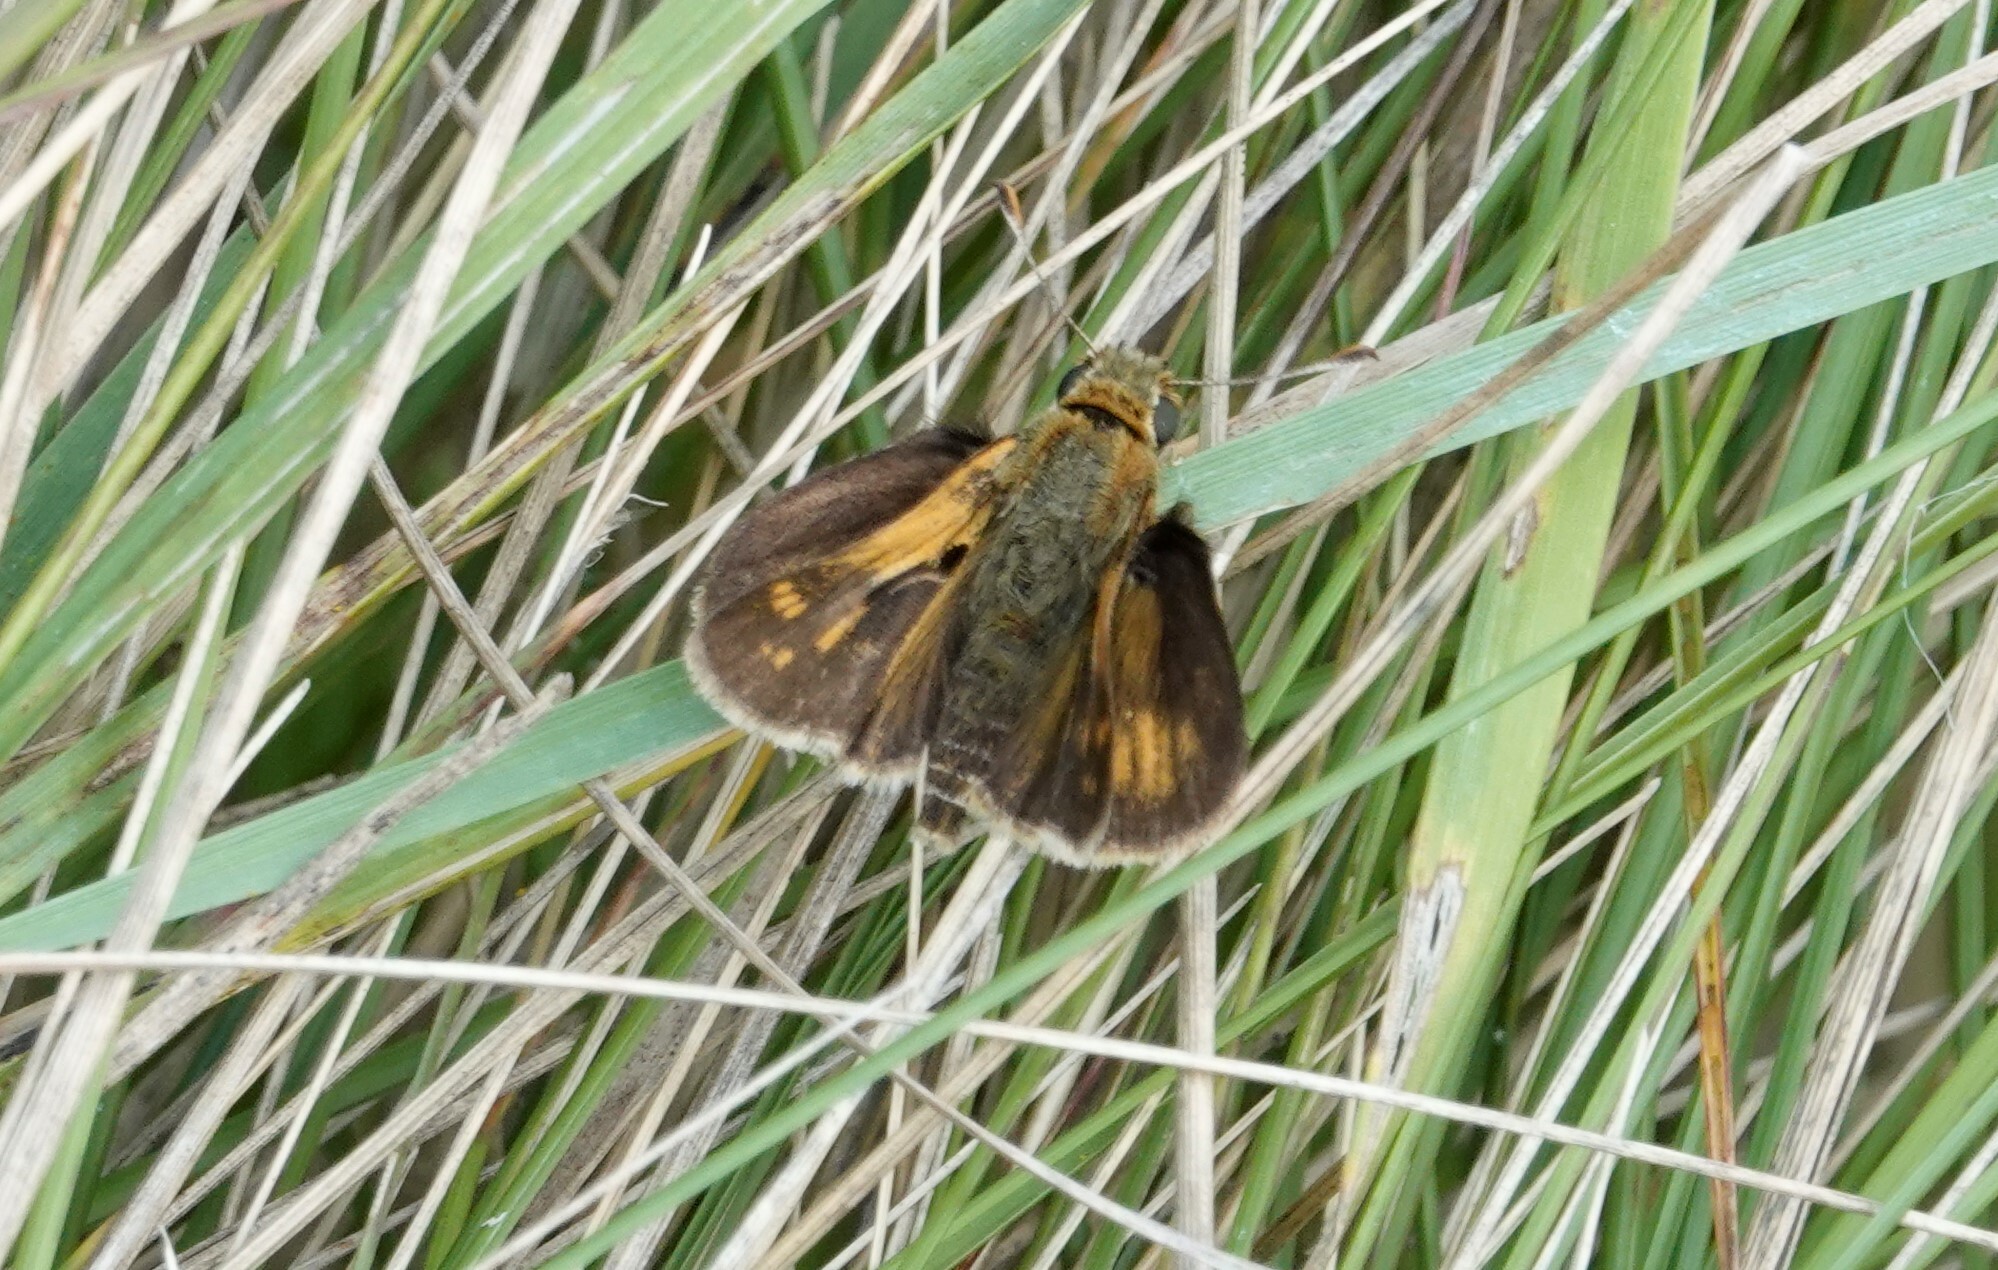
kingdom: Animalia
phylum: Arthropoda
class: Insecta
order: Lepidoptera
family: Hesperiidae
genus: Polites
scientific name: Polites coras
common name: Peck's skipper
